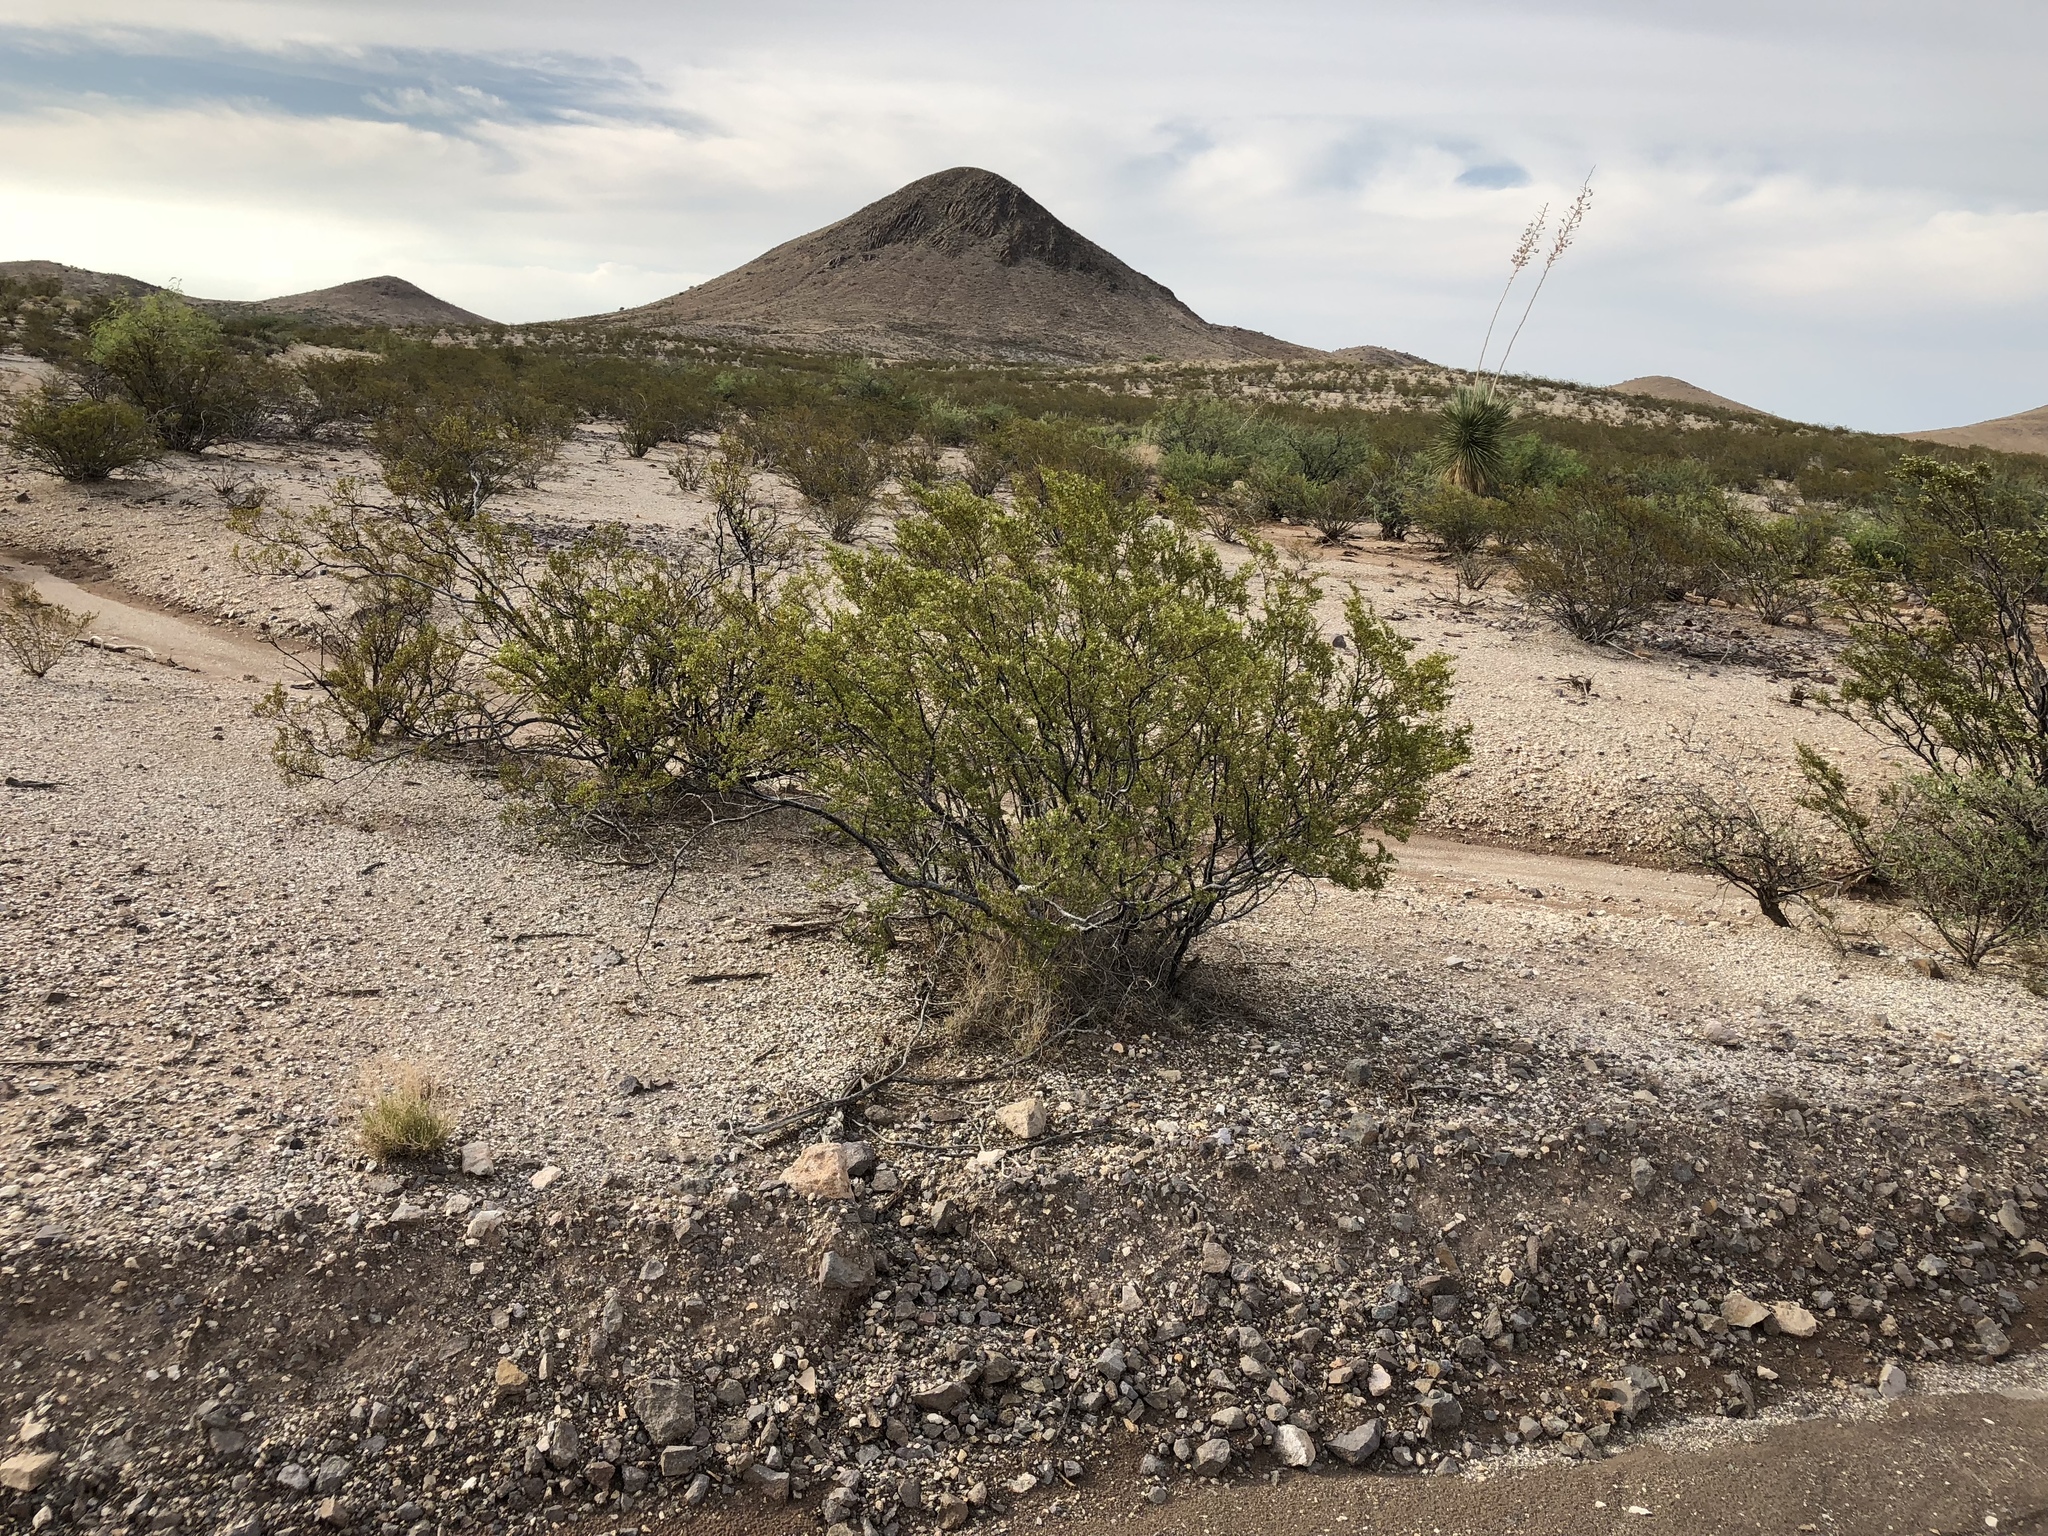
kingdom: Plantae
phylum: Tracheophyta
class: Magnoliopsida
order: Zygophyllales
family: Zygophyllaceae
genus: Larrea
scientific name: Larrea tridentata
